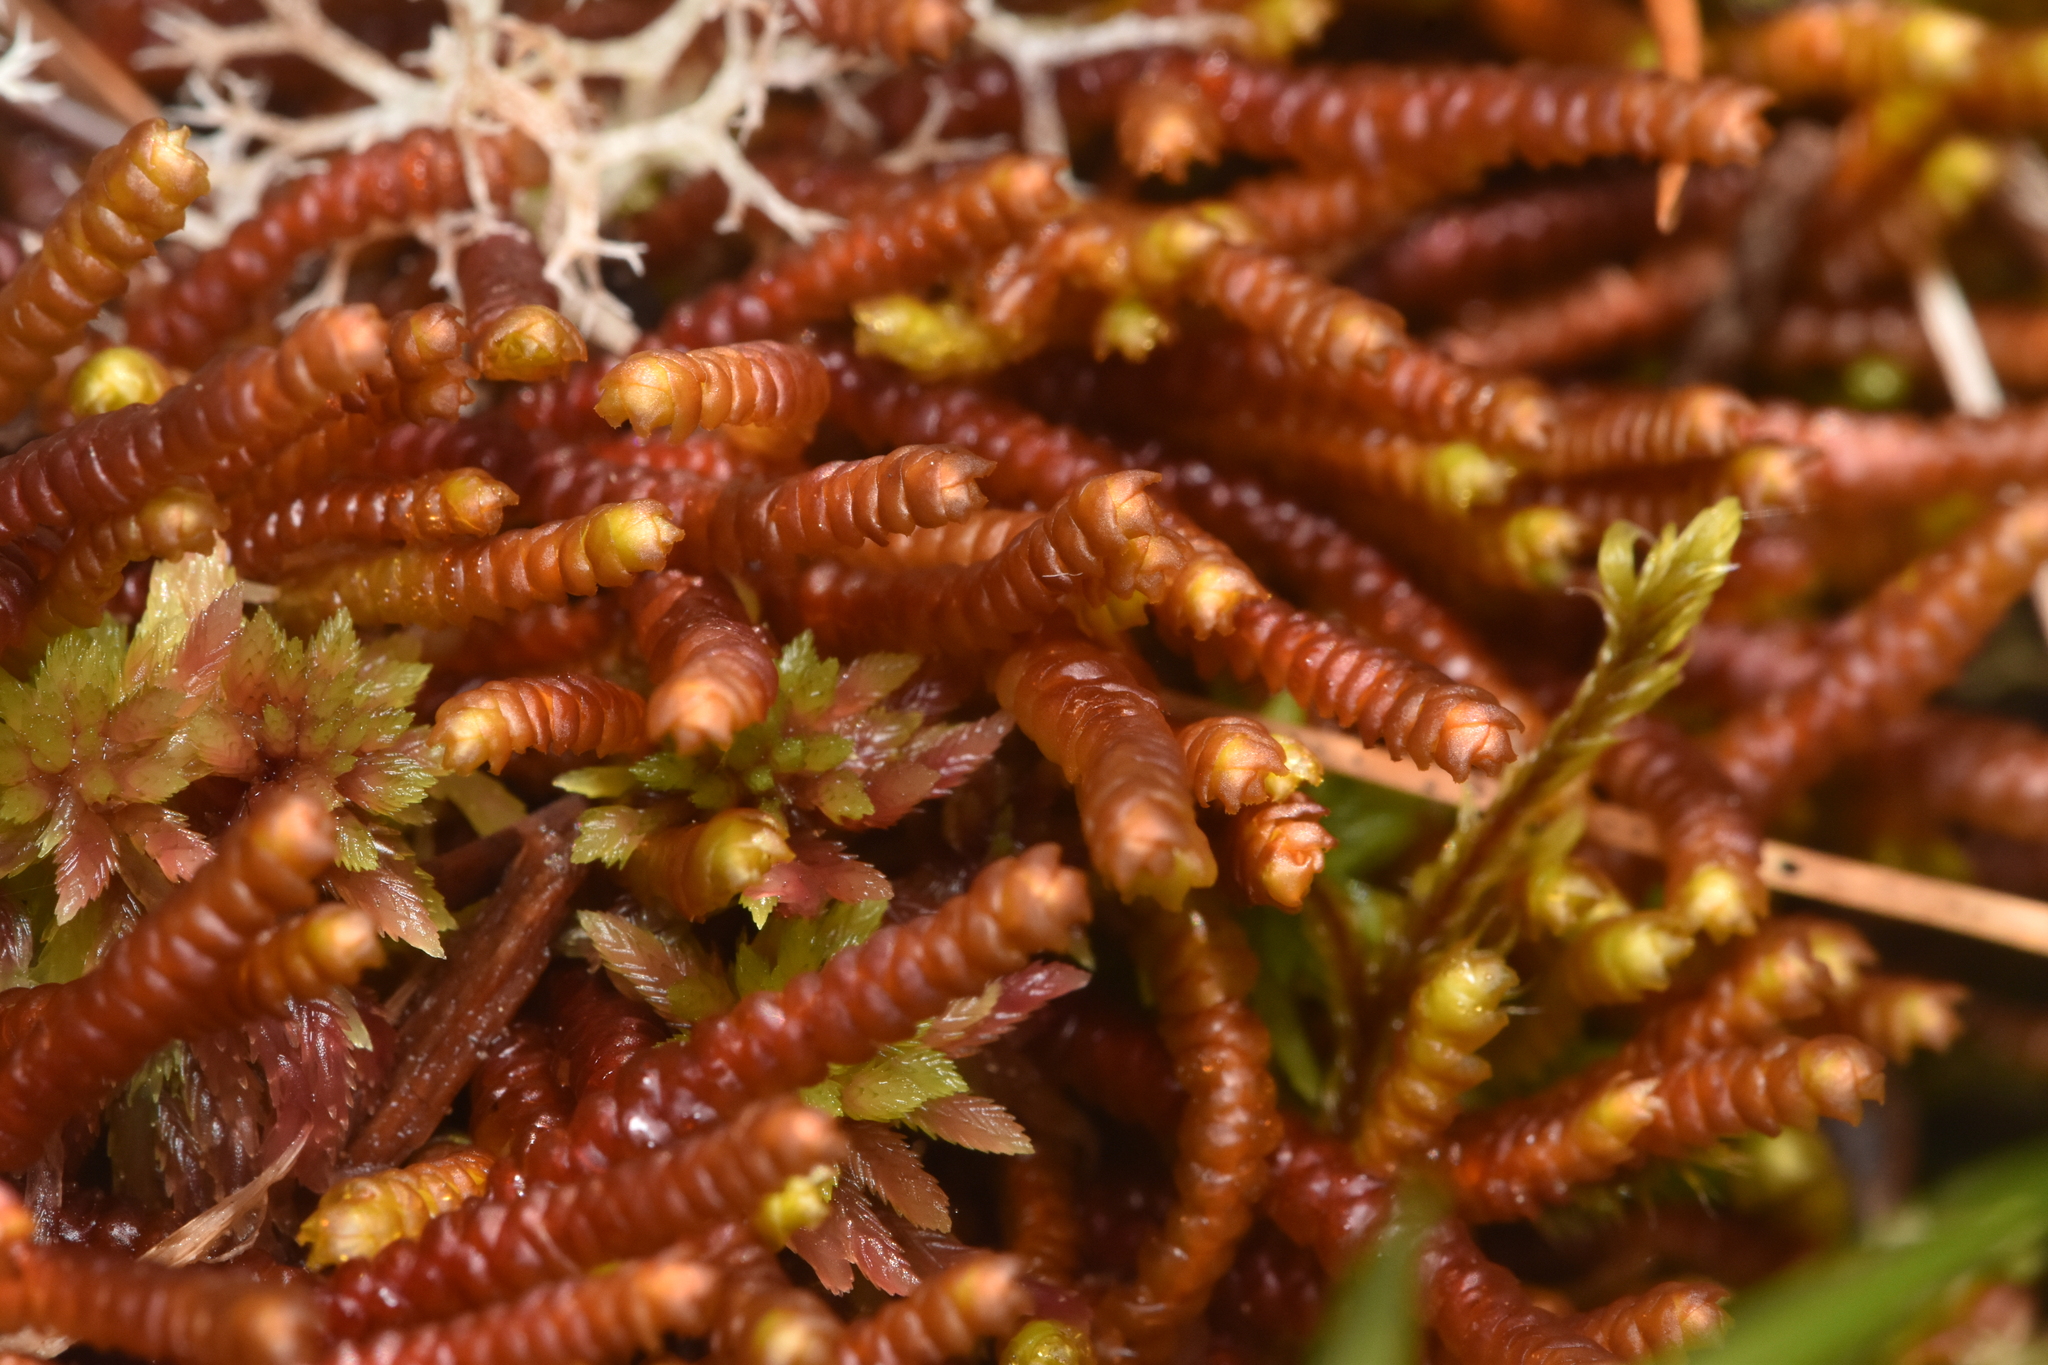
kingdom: Plantae
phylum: Marchantiophyta
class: Jungermanniopsida
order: Pleuroziales
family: Pleuroziaceae
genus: Pleurozia
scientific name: Pleurozia purpurea
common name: Purple spoonwort
